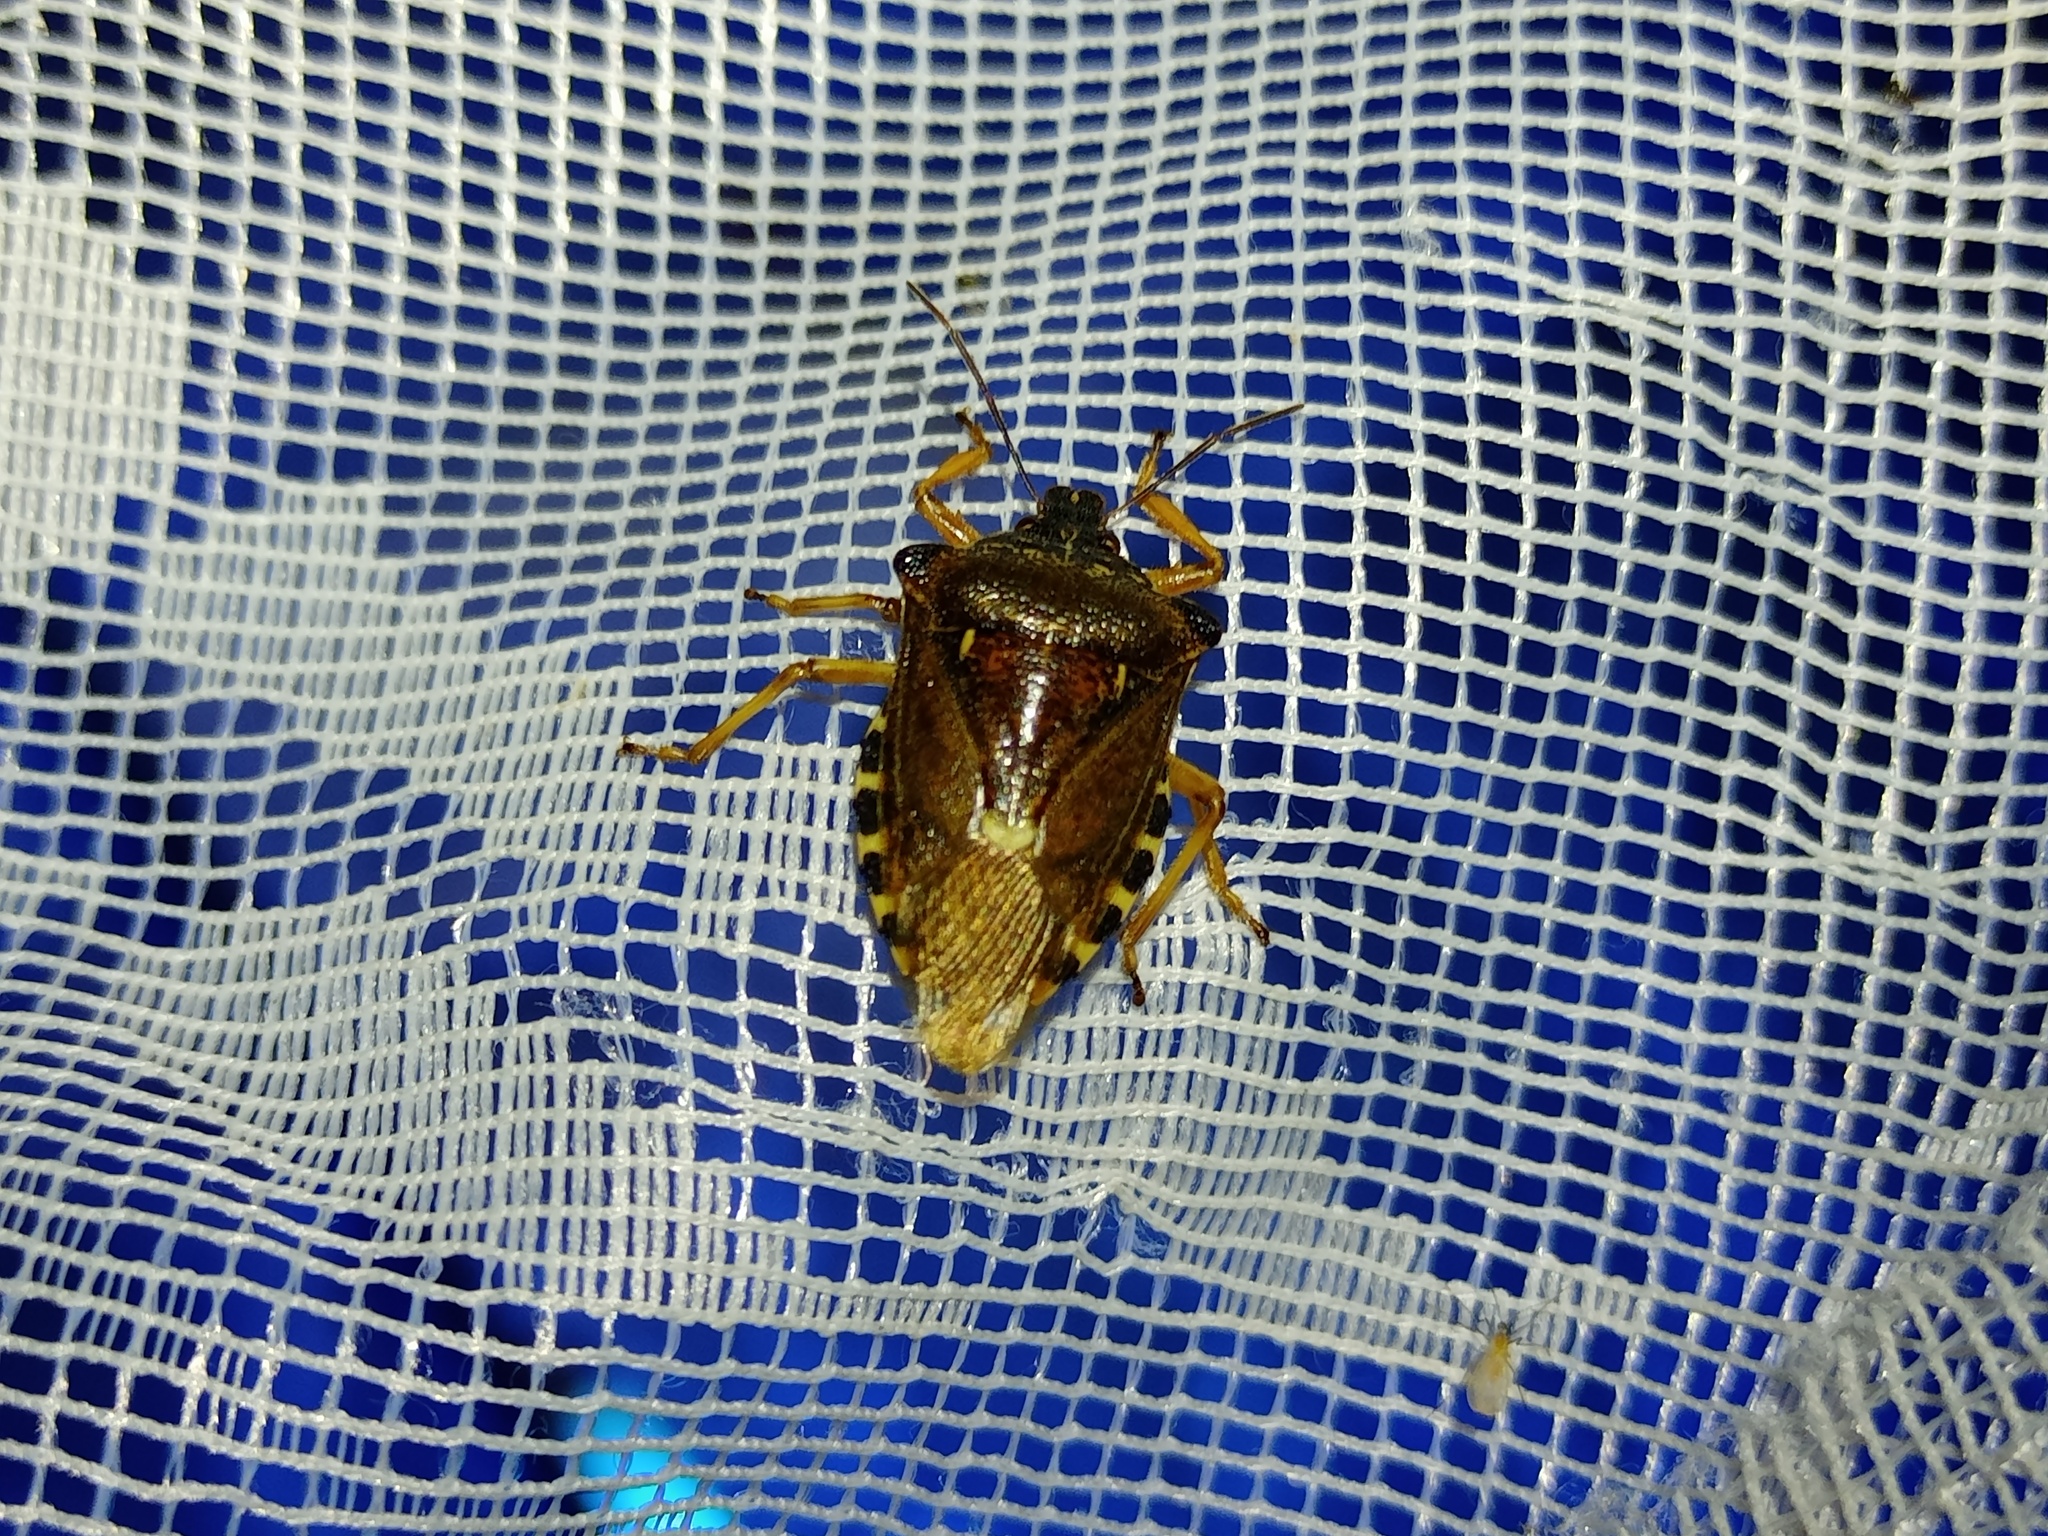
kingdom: Animalia
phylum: Arthropoda
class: Insecta
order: Hemiptera
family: Pentatomidae
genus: Pinthaeus
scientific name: Pinthaeus sanguinipes
